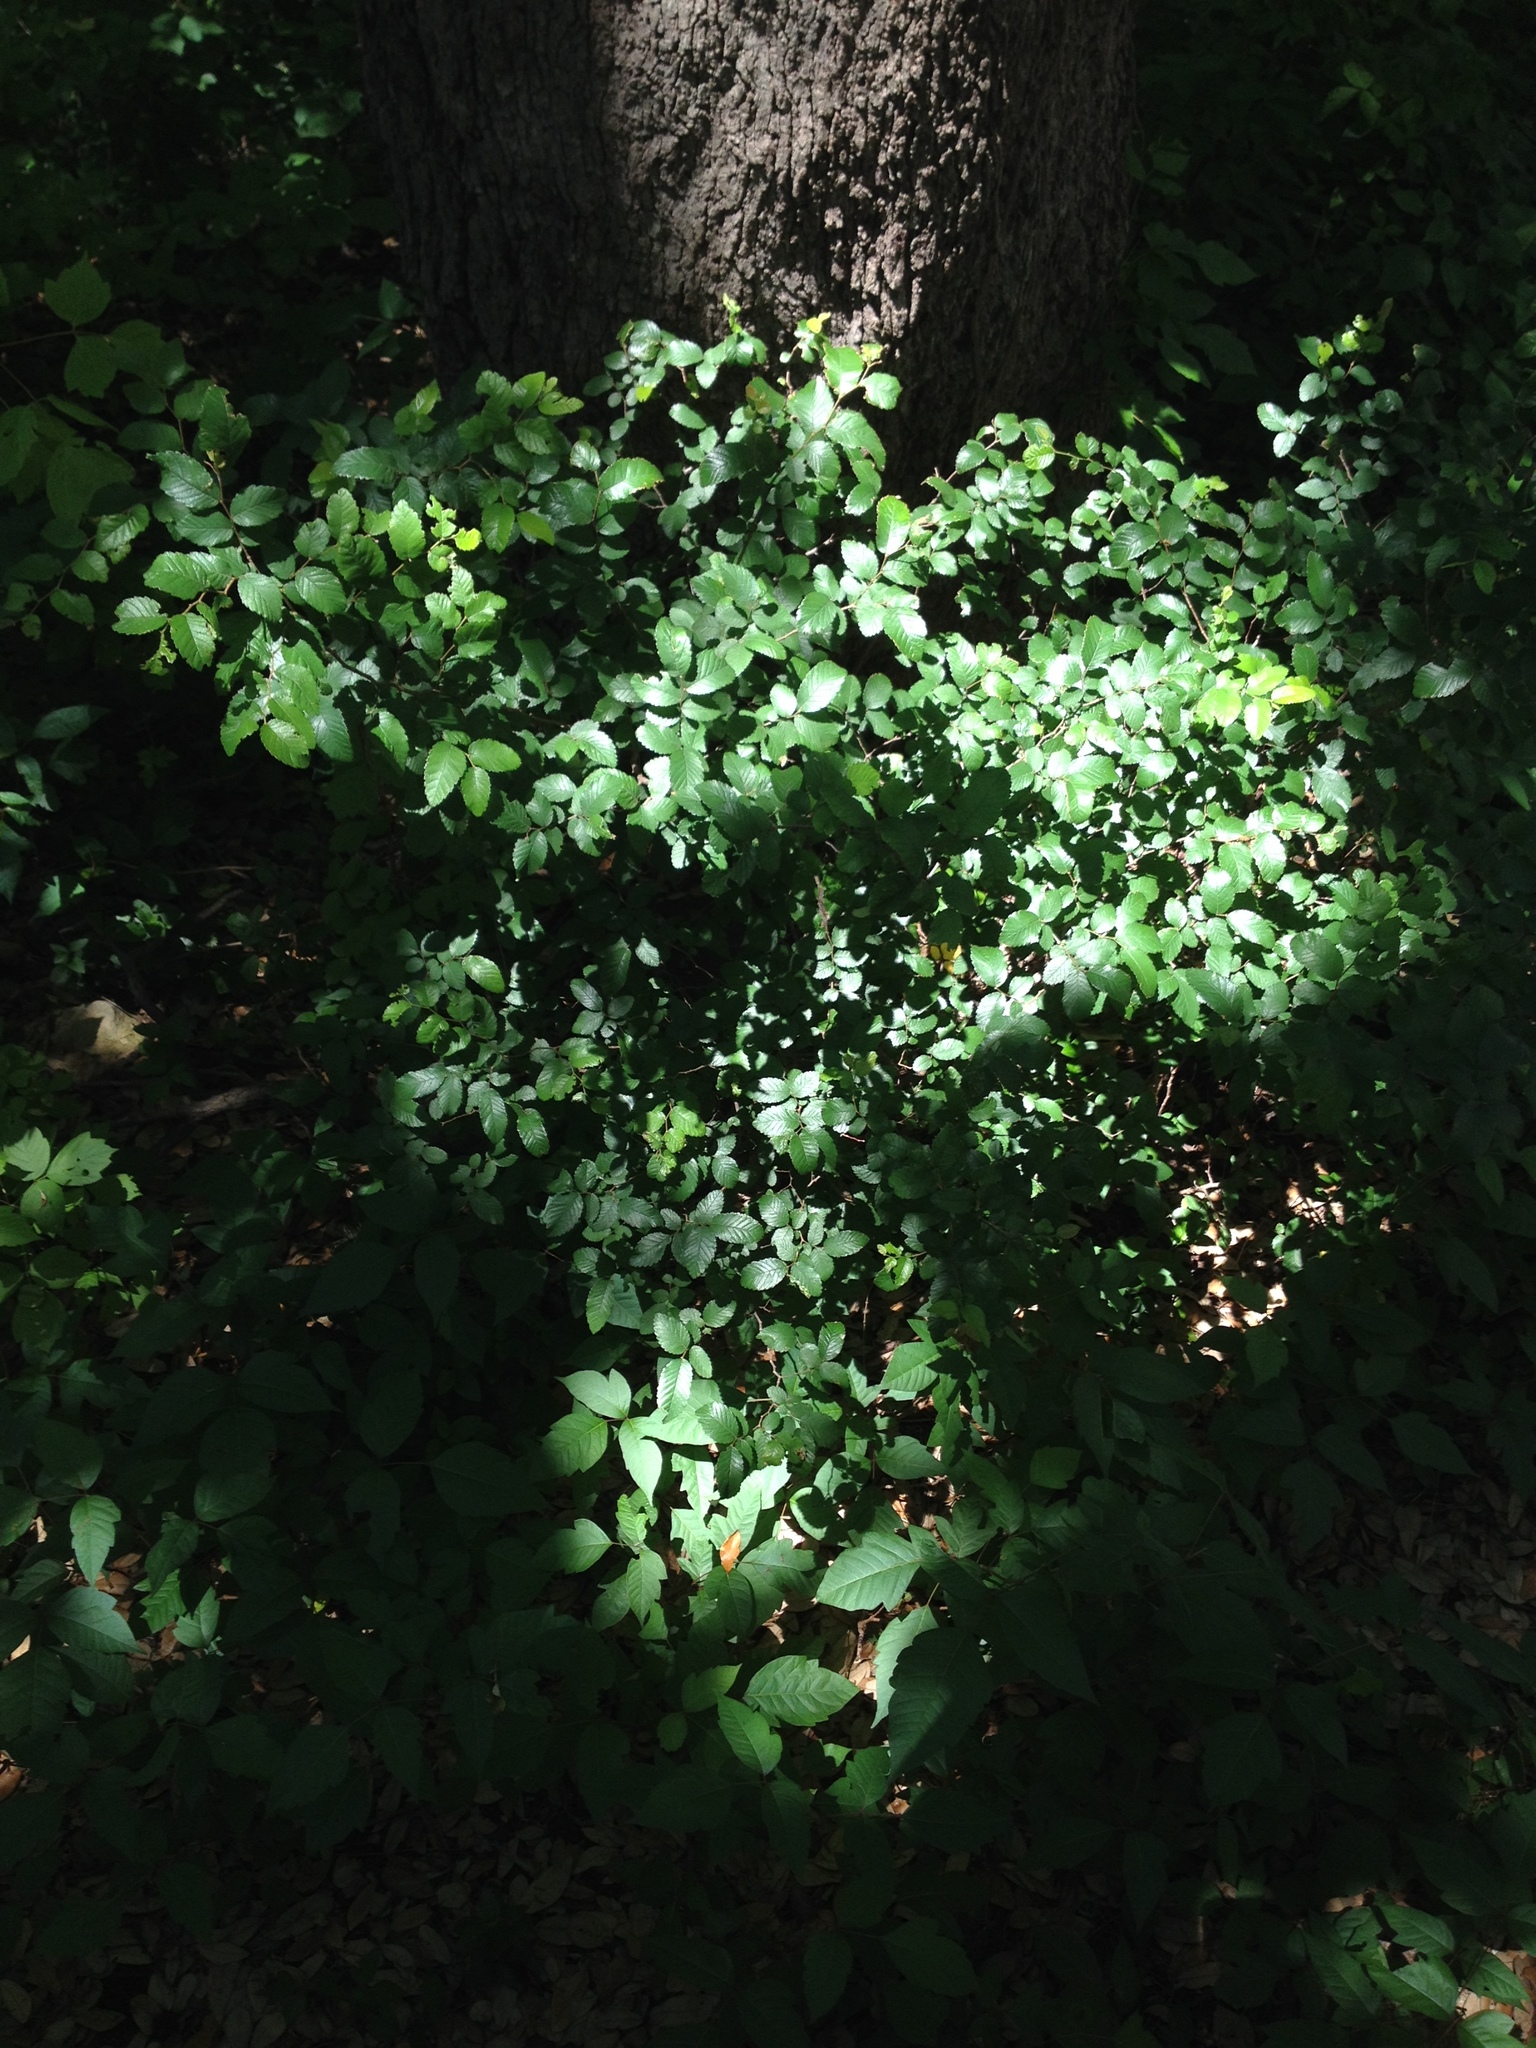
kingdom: Plantae
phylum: Tracheophyta
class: Magnoliopsida
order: Rosales
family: Ulmaceae
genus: Ulmus
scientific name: Ulmus crassifolia
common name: Basket elm
